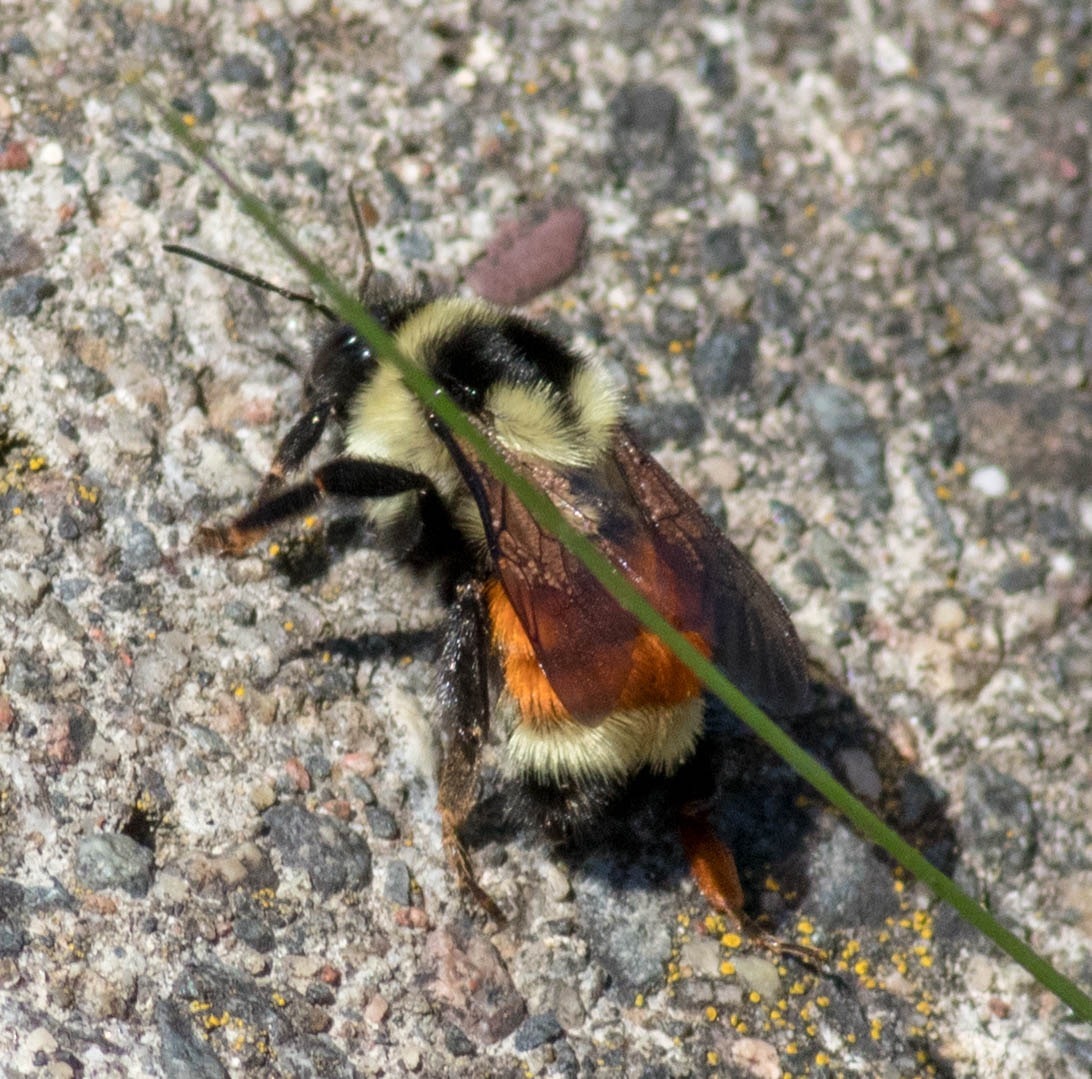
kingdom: Animalia
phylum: Arthropoda
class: Insecta
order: Hymenoptera
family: Apidae
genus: Bombus
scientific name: Bombus ternarius
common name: Tri-colored bumble bee
